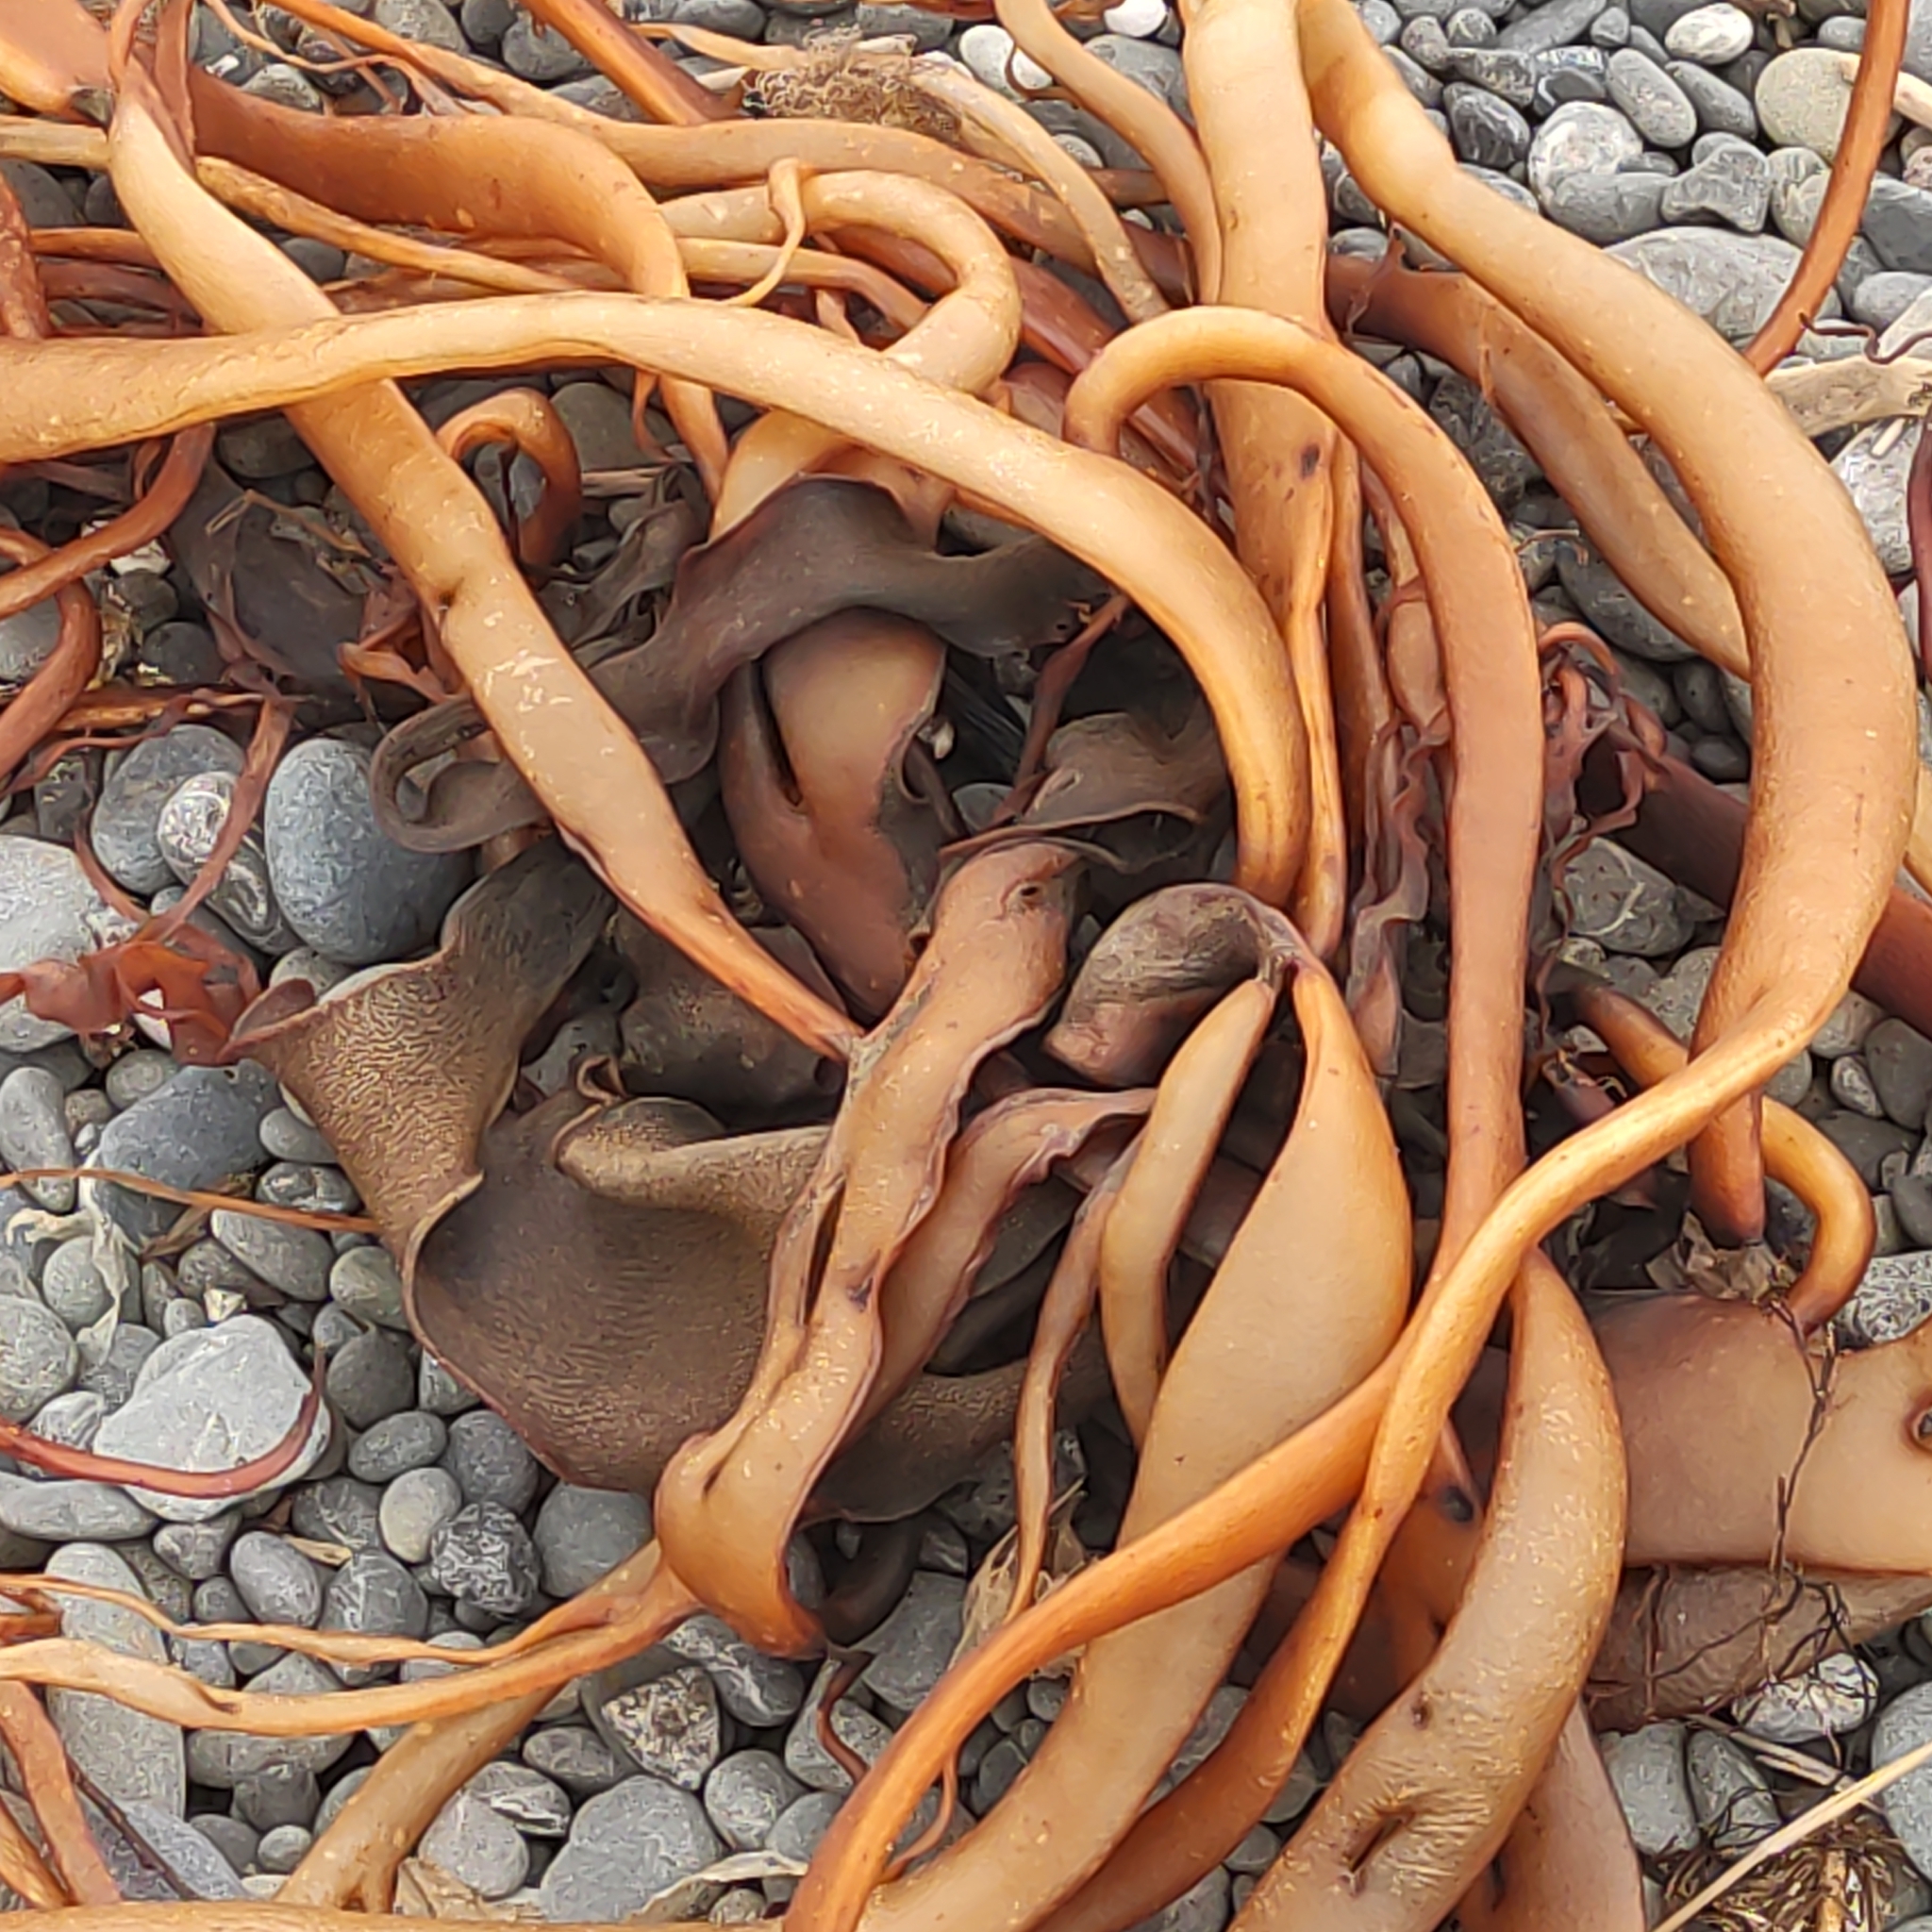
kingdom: Chromista
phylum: Ochrophyta
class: Phaeophyceae
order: Fucales
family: Durvillaeaceae
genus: Durvillaea
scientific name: Durvillaea antarctica
